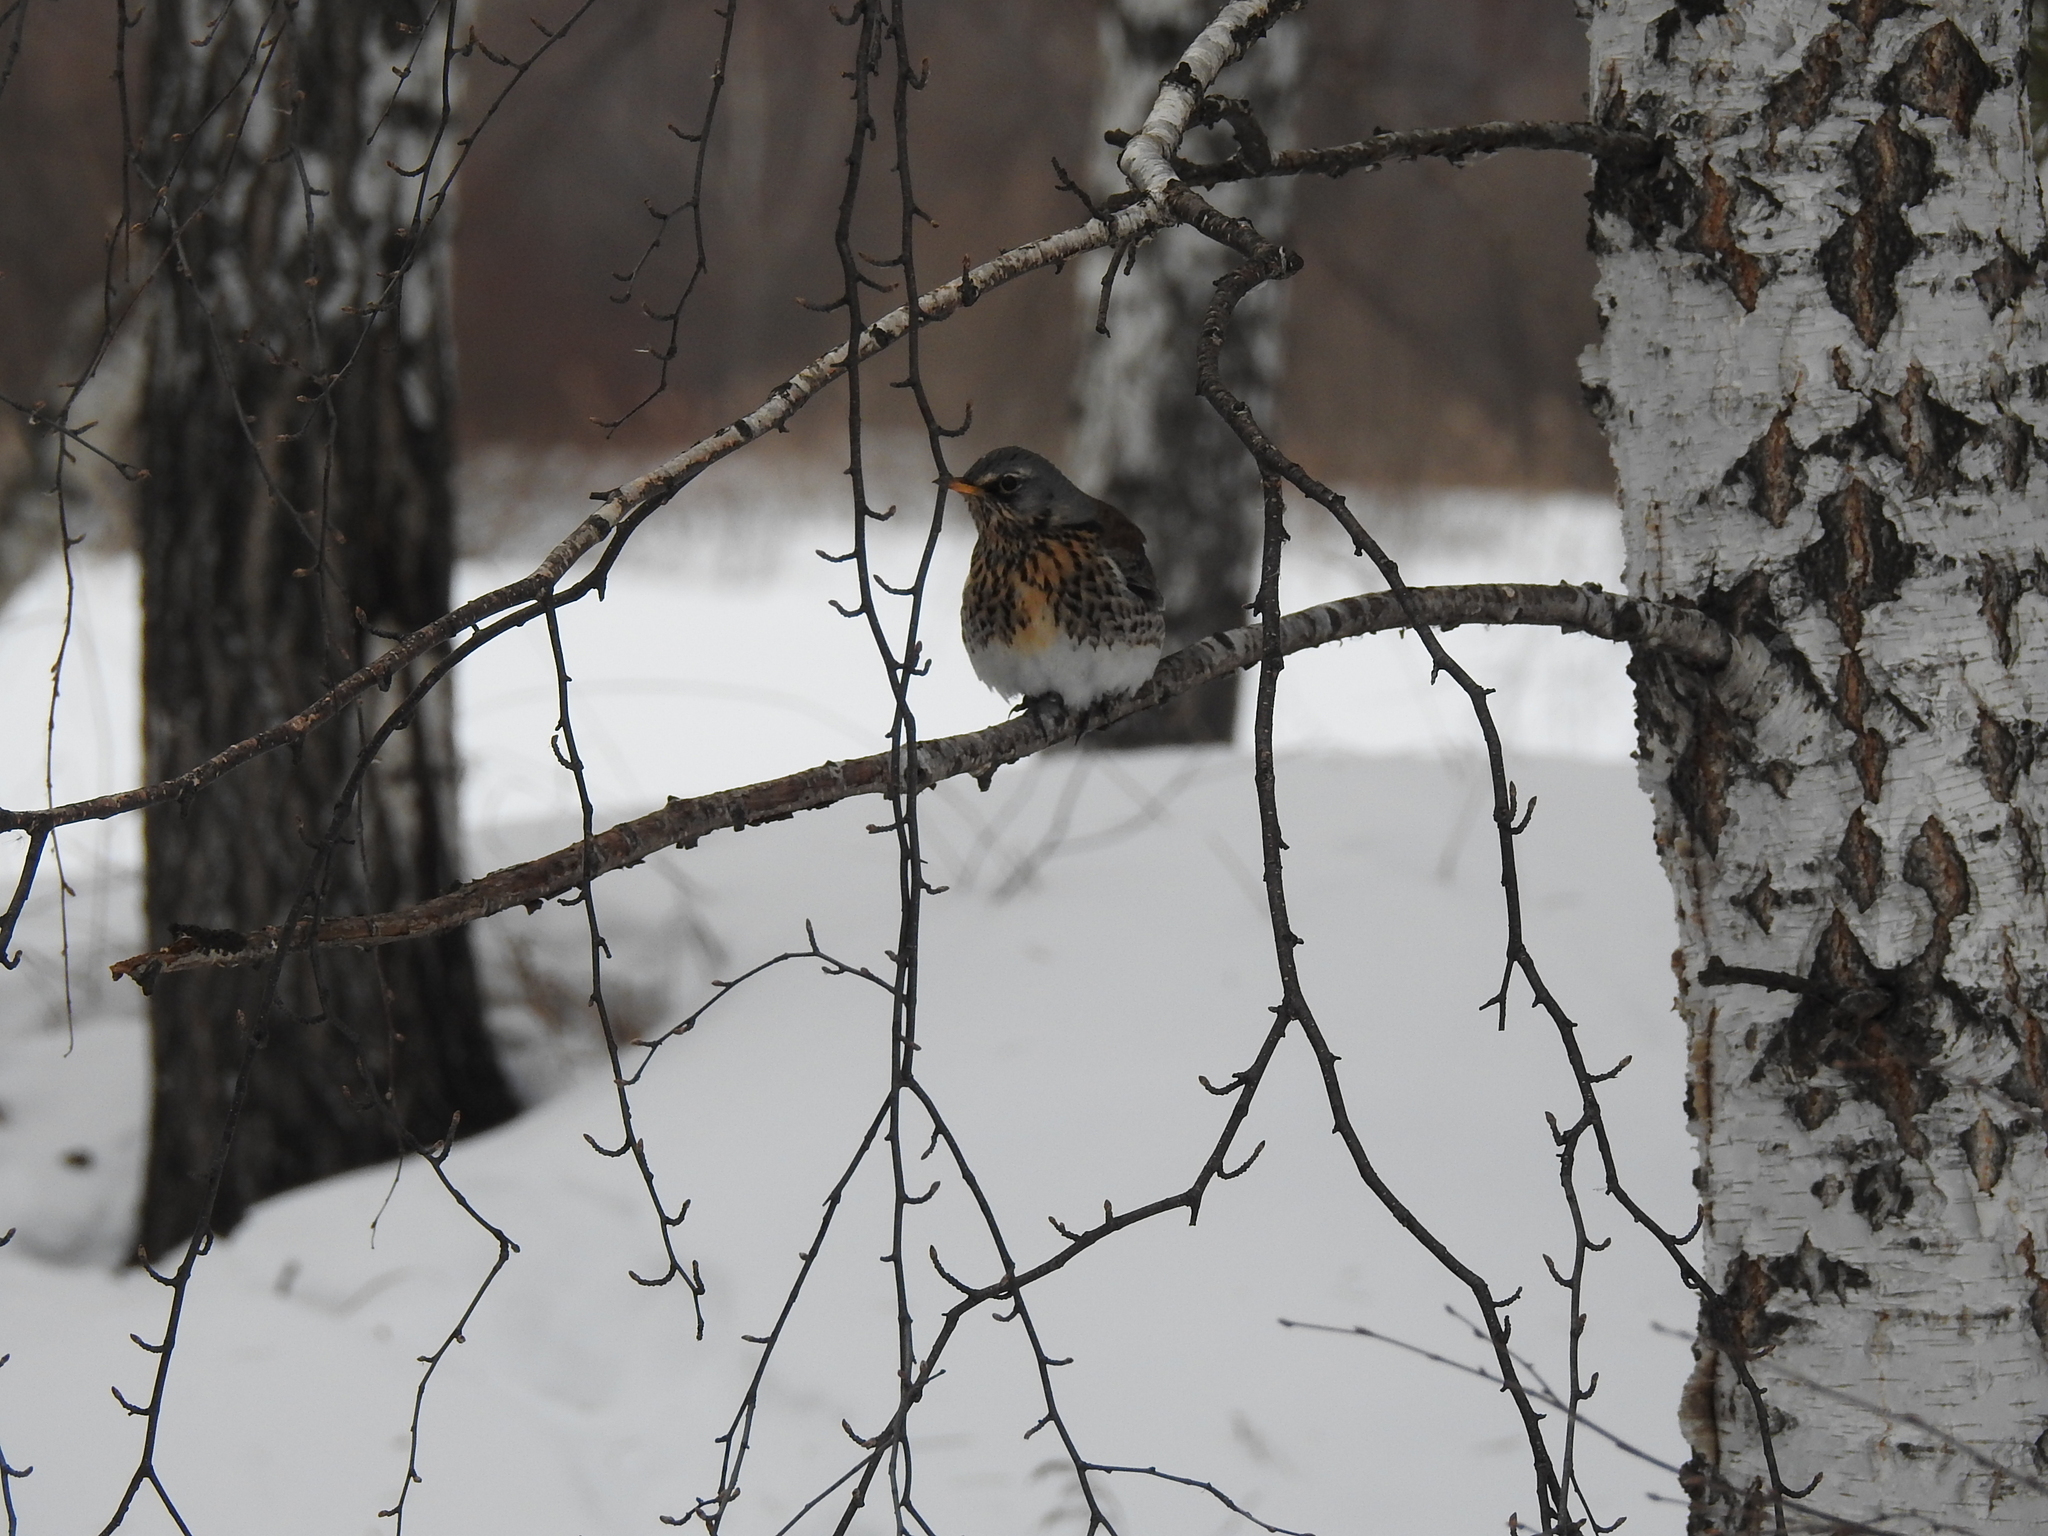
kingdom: Animalia
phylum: Chordata
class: Aves
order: Passeriformes
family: Turdidae
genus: Turdus
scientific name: Turdus pilaris
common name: Fieldfare
